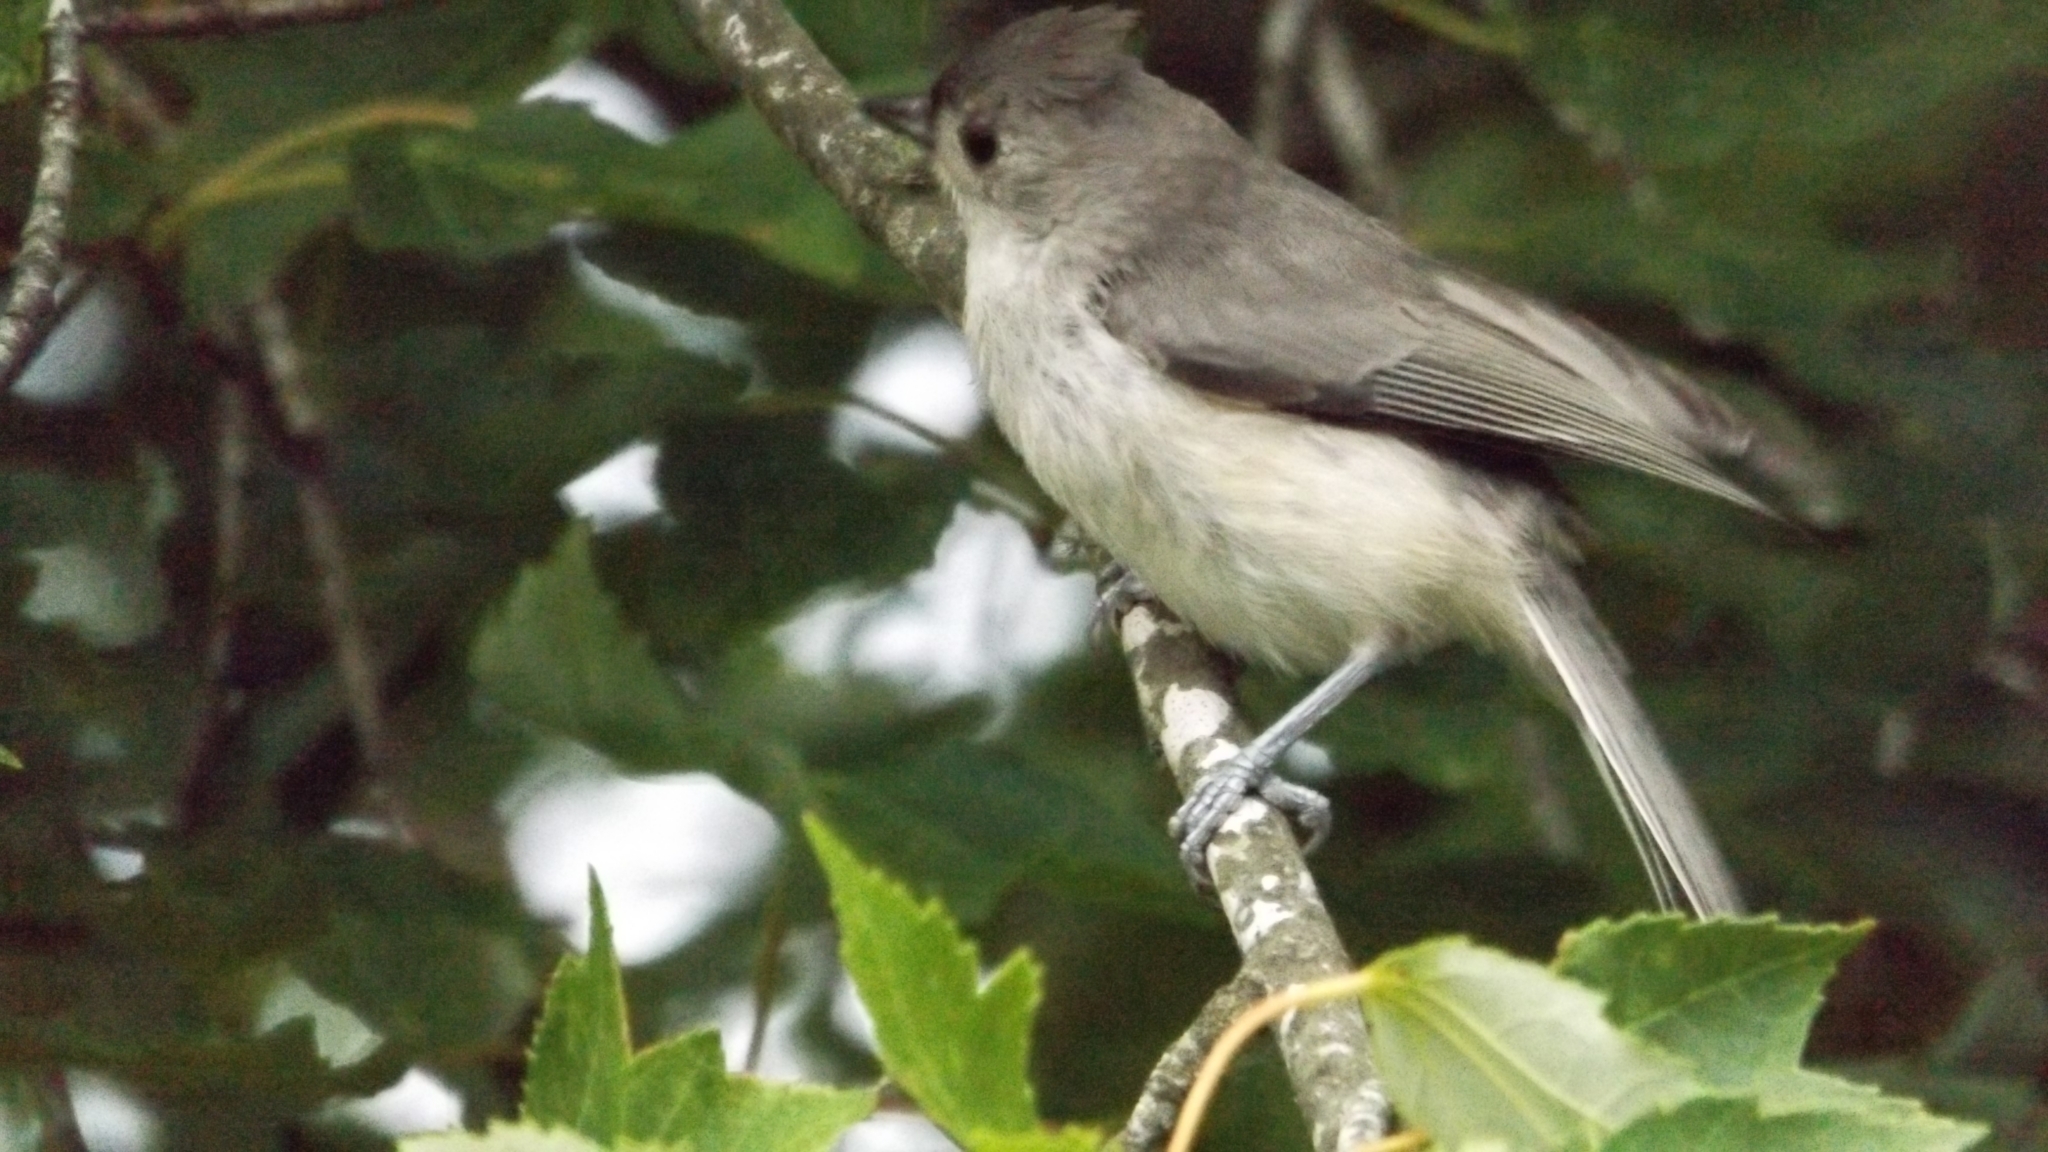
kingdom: Animalia
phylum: Chordata
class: Aves
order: Passeriformes
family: Paridae
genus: Baeolophus
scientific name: Baeolophus bicolor
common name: Tufted titmouse
